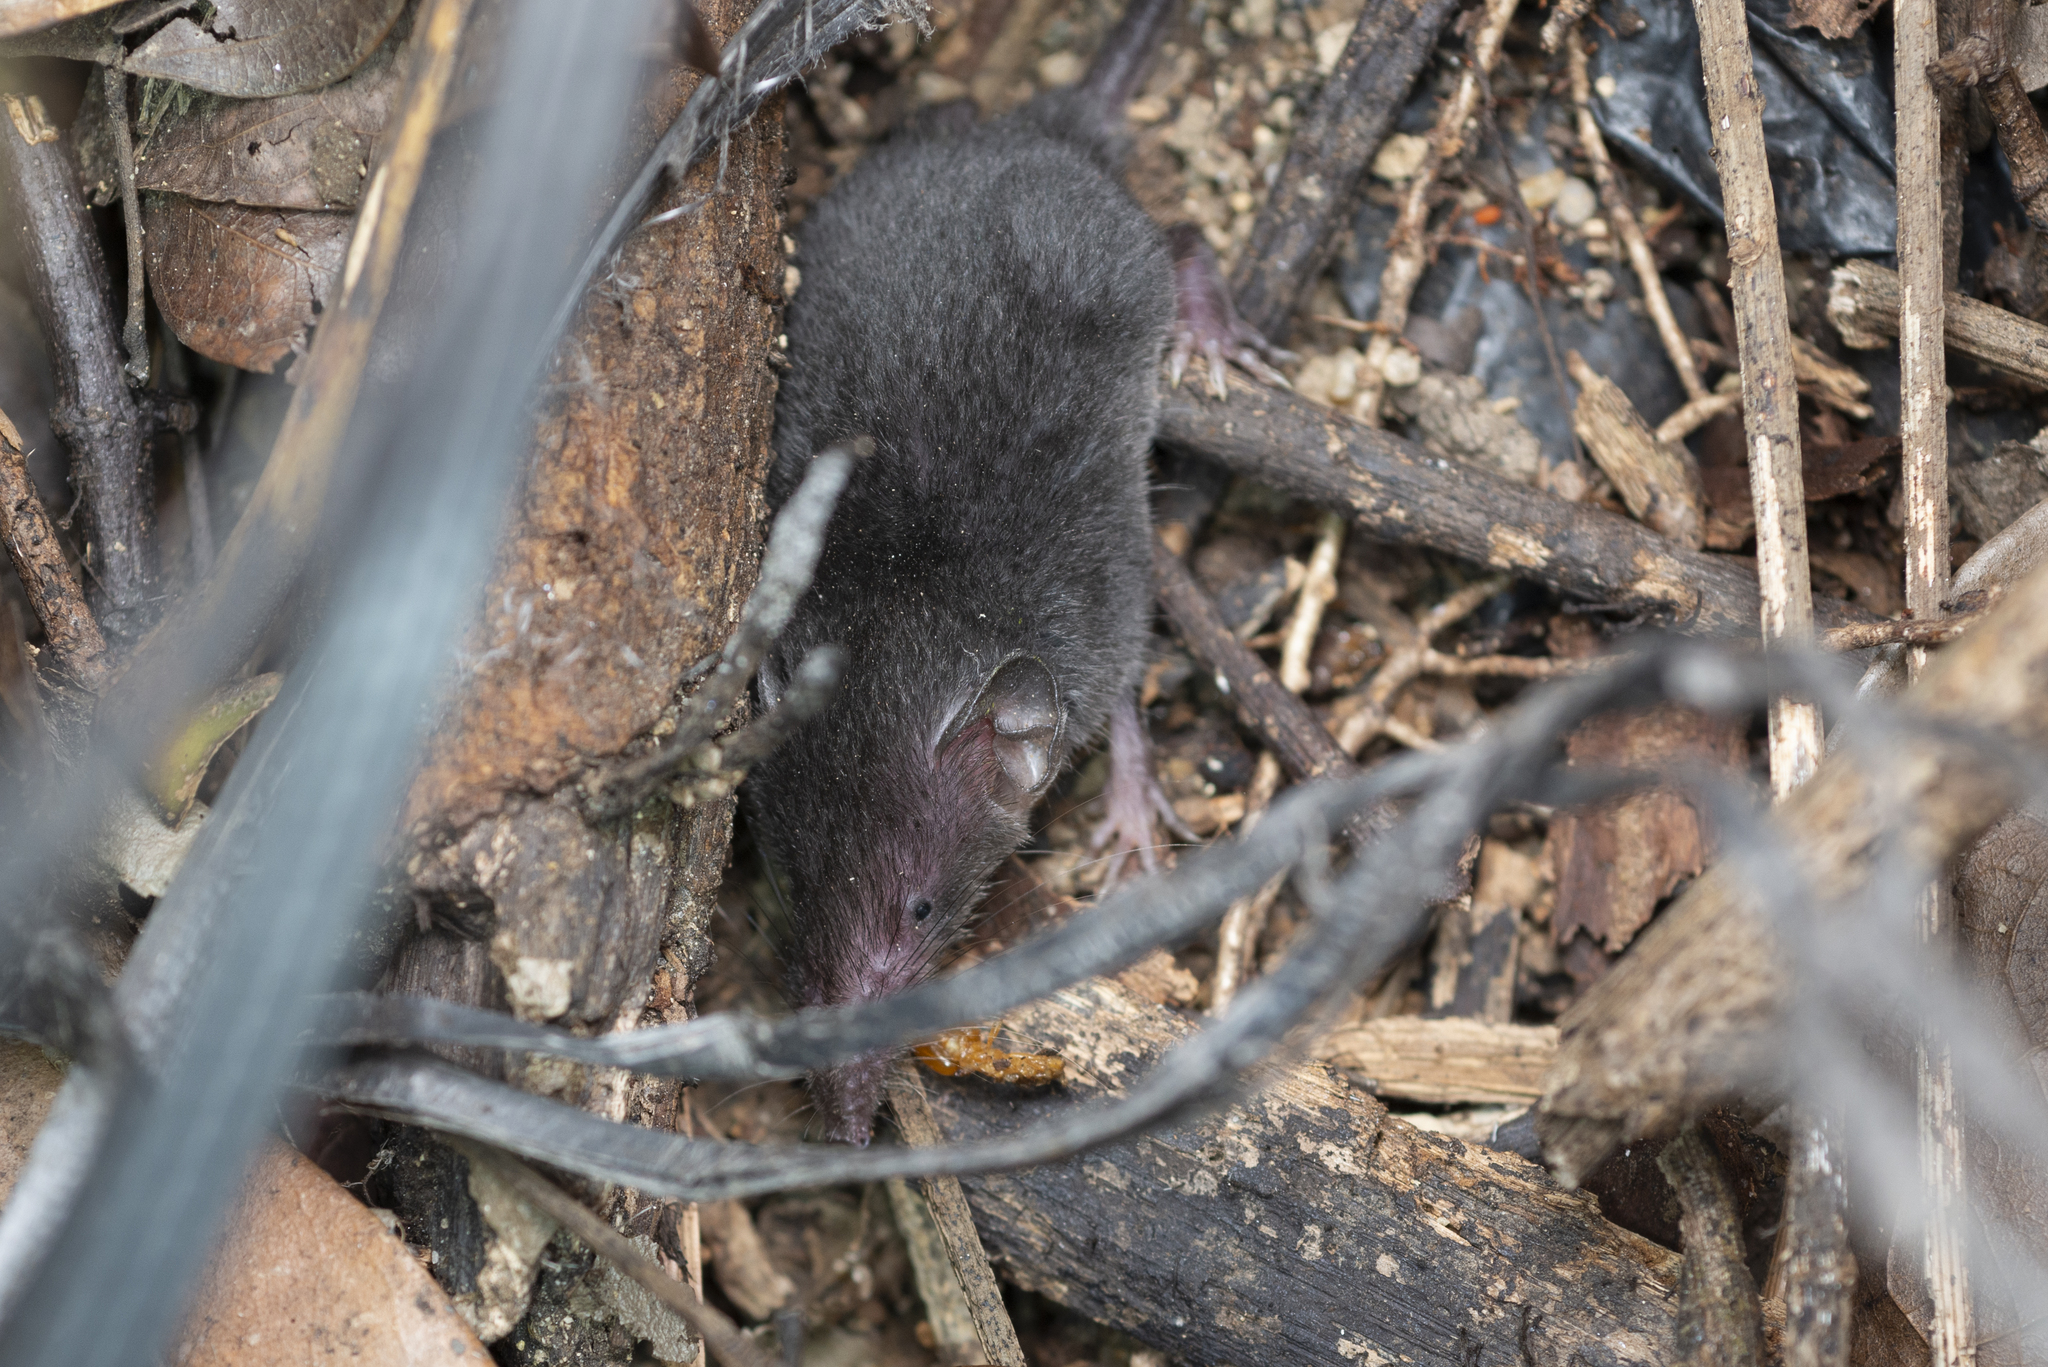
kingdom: Animalia
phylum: Chordata
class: Mammalia
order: Soricomorpha
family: Soricidae
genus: Suncus
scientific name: Suncus murinus
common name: Asian house shrew
